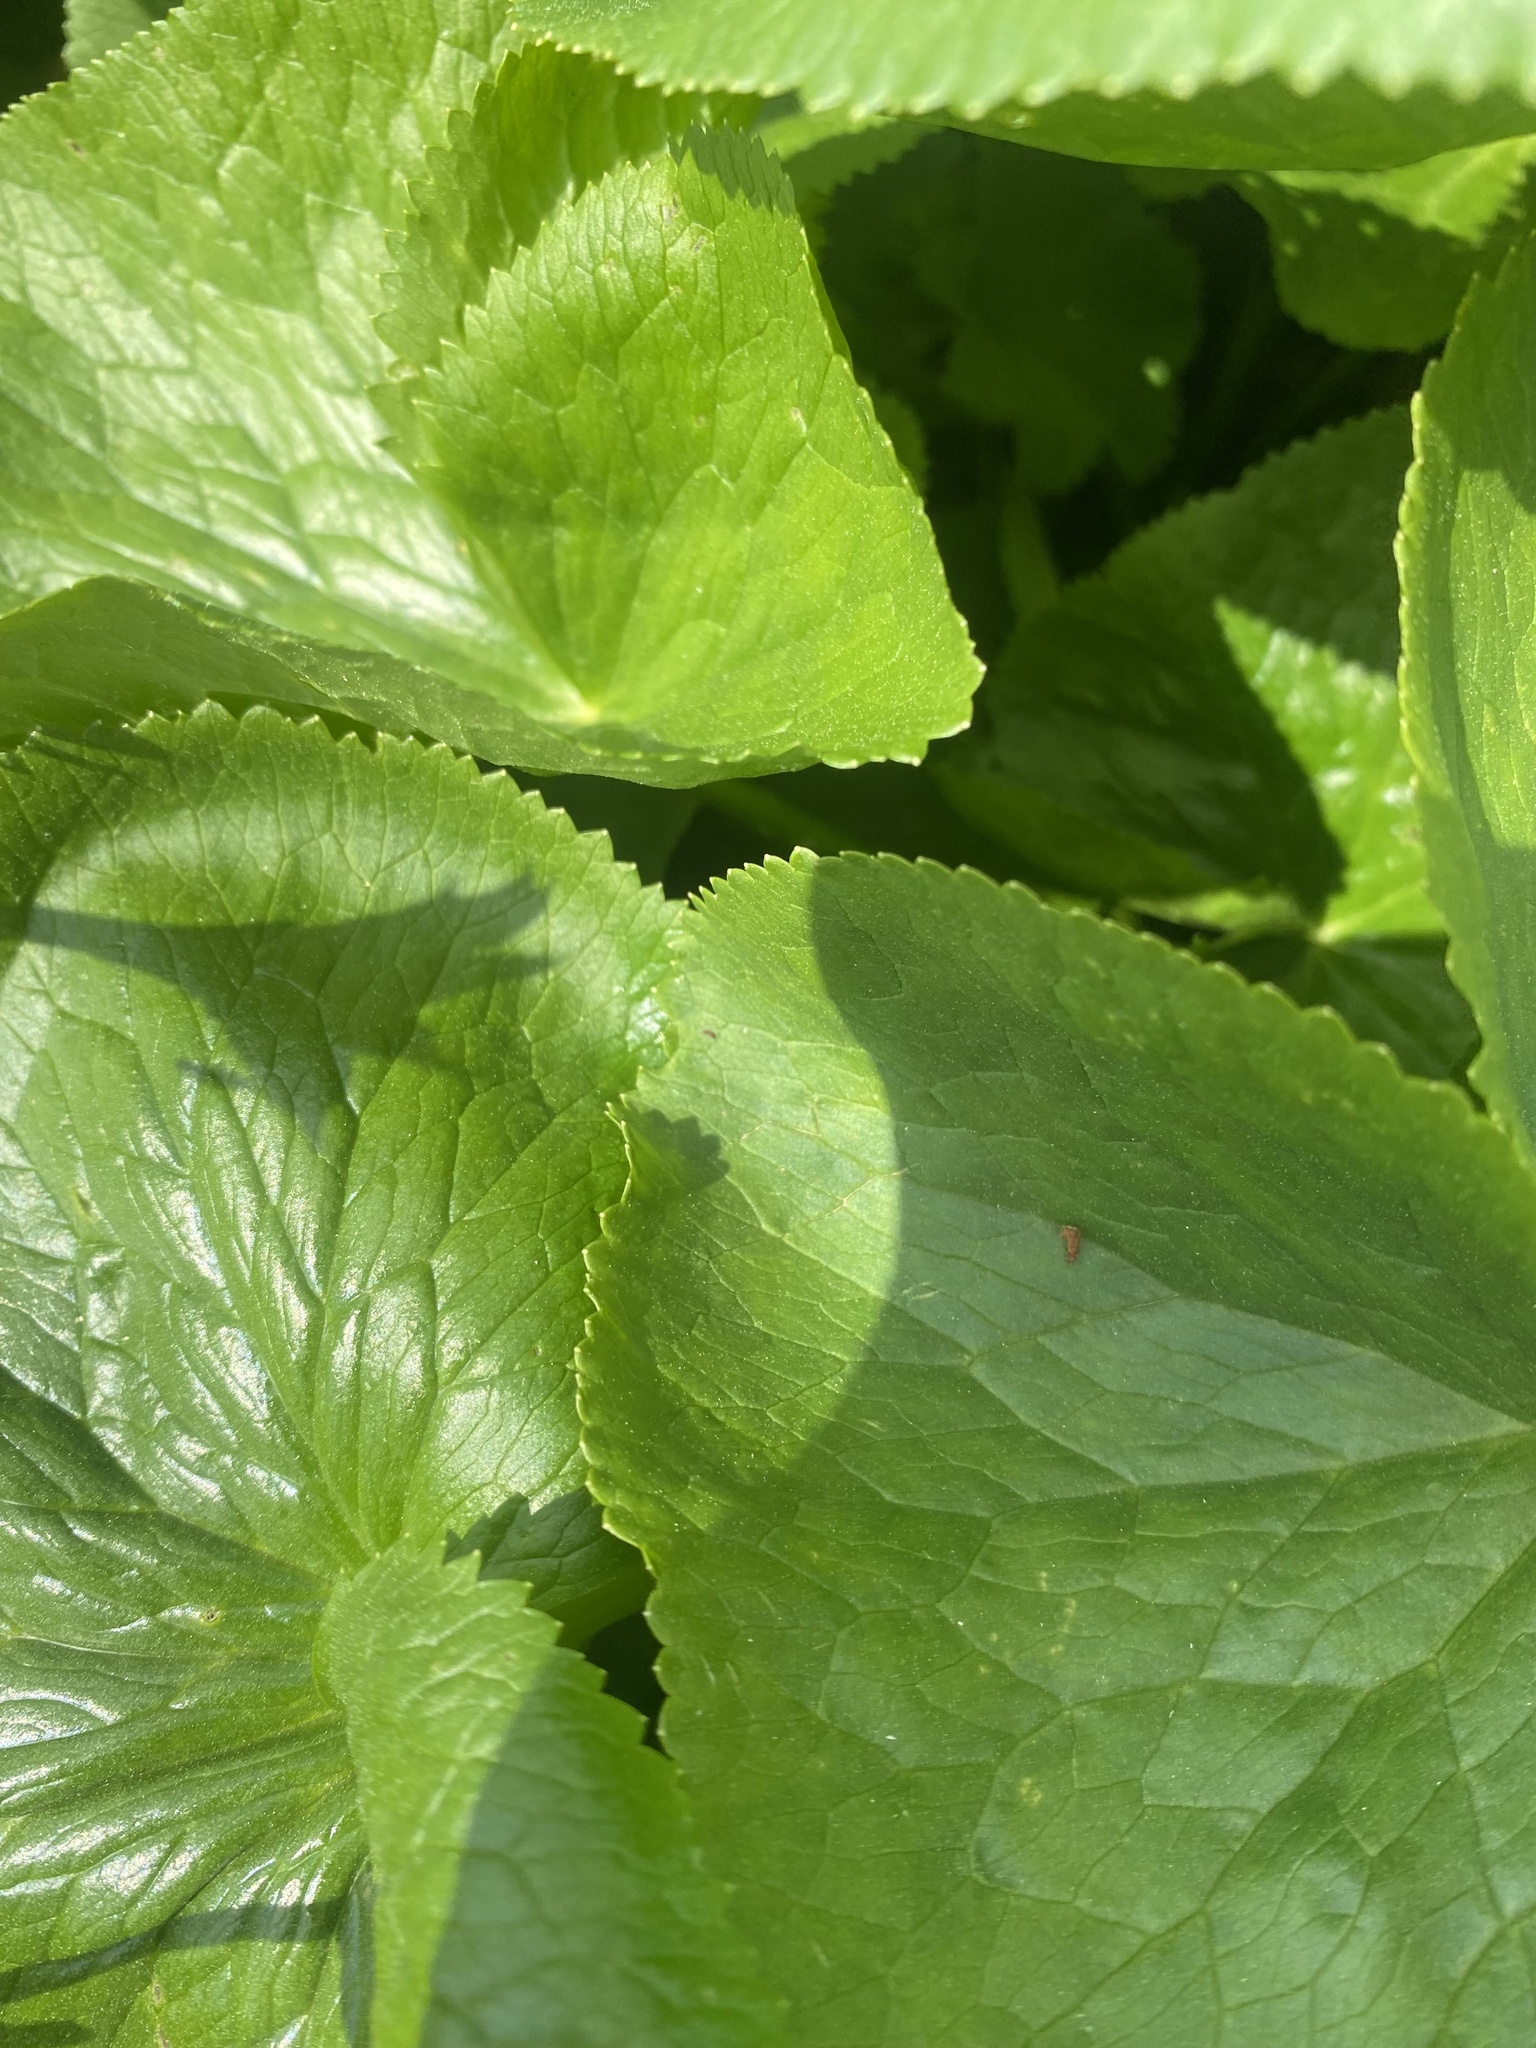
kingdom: Plantae
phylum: Tracheophyta
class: Magnoliopsida
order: Ranunculales
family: Ranunculaceae
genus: Caltha
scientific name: Caltha palustris
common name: Marsh marigold
